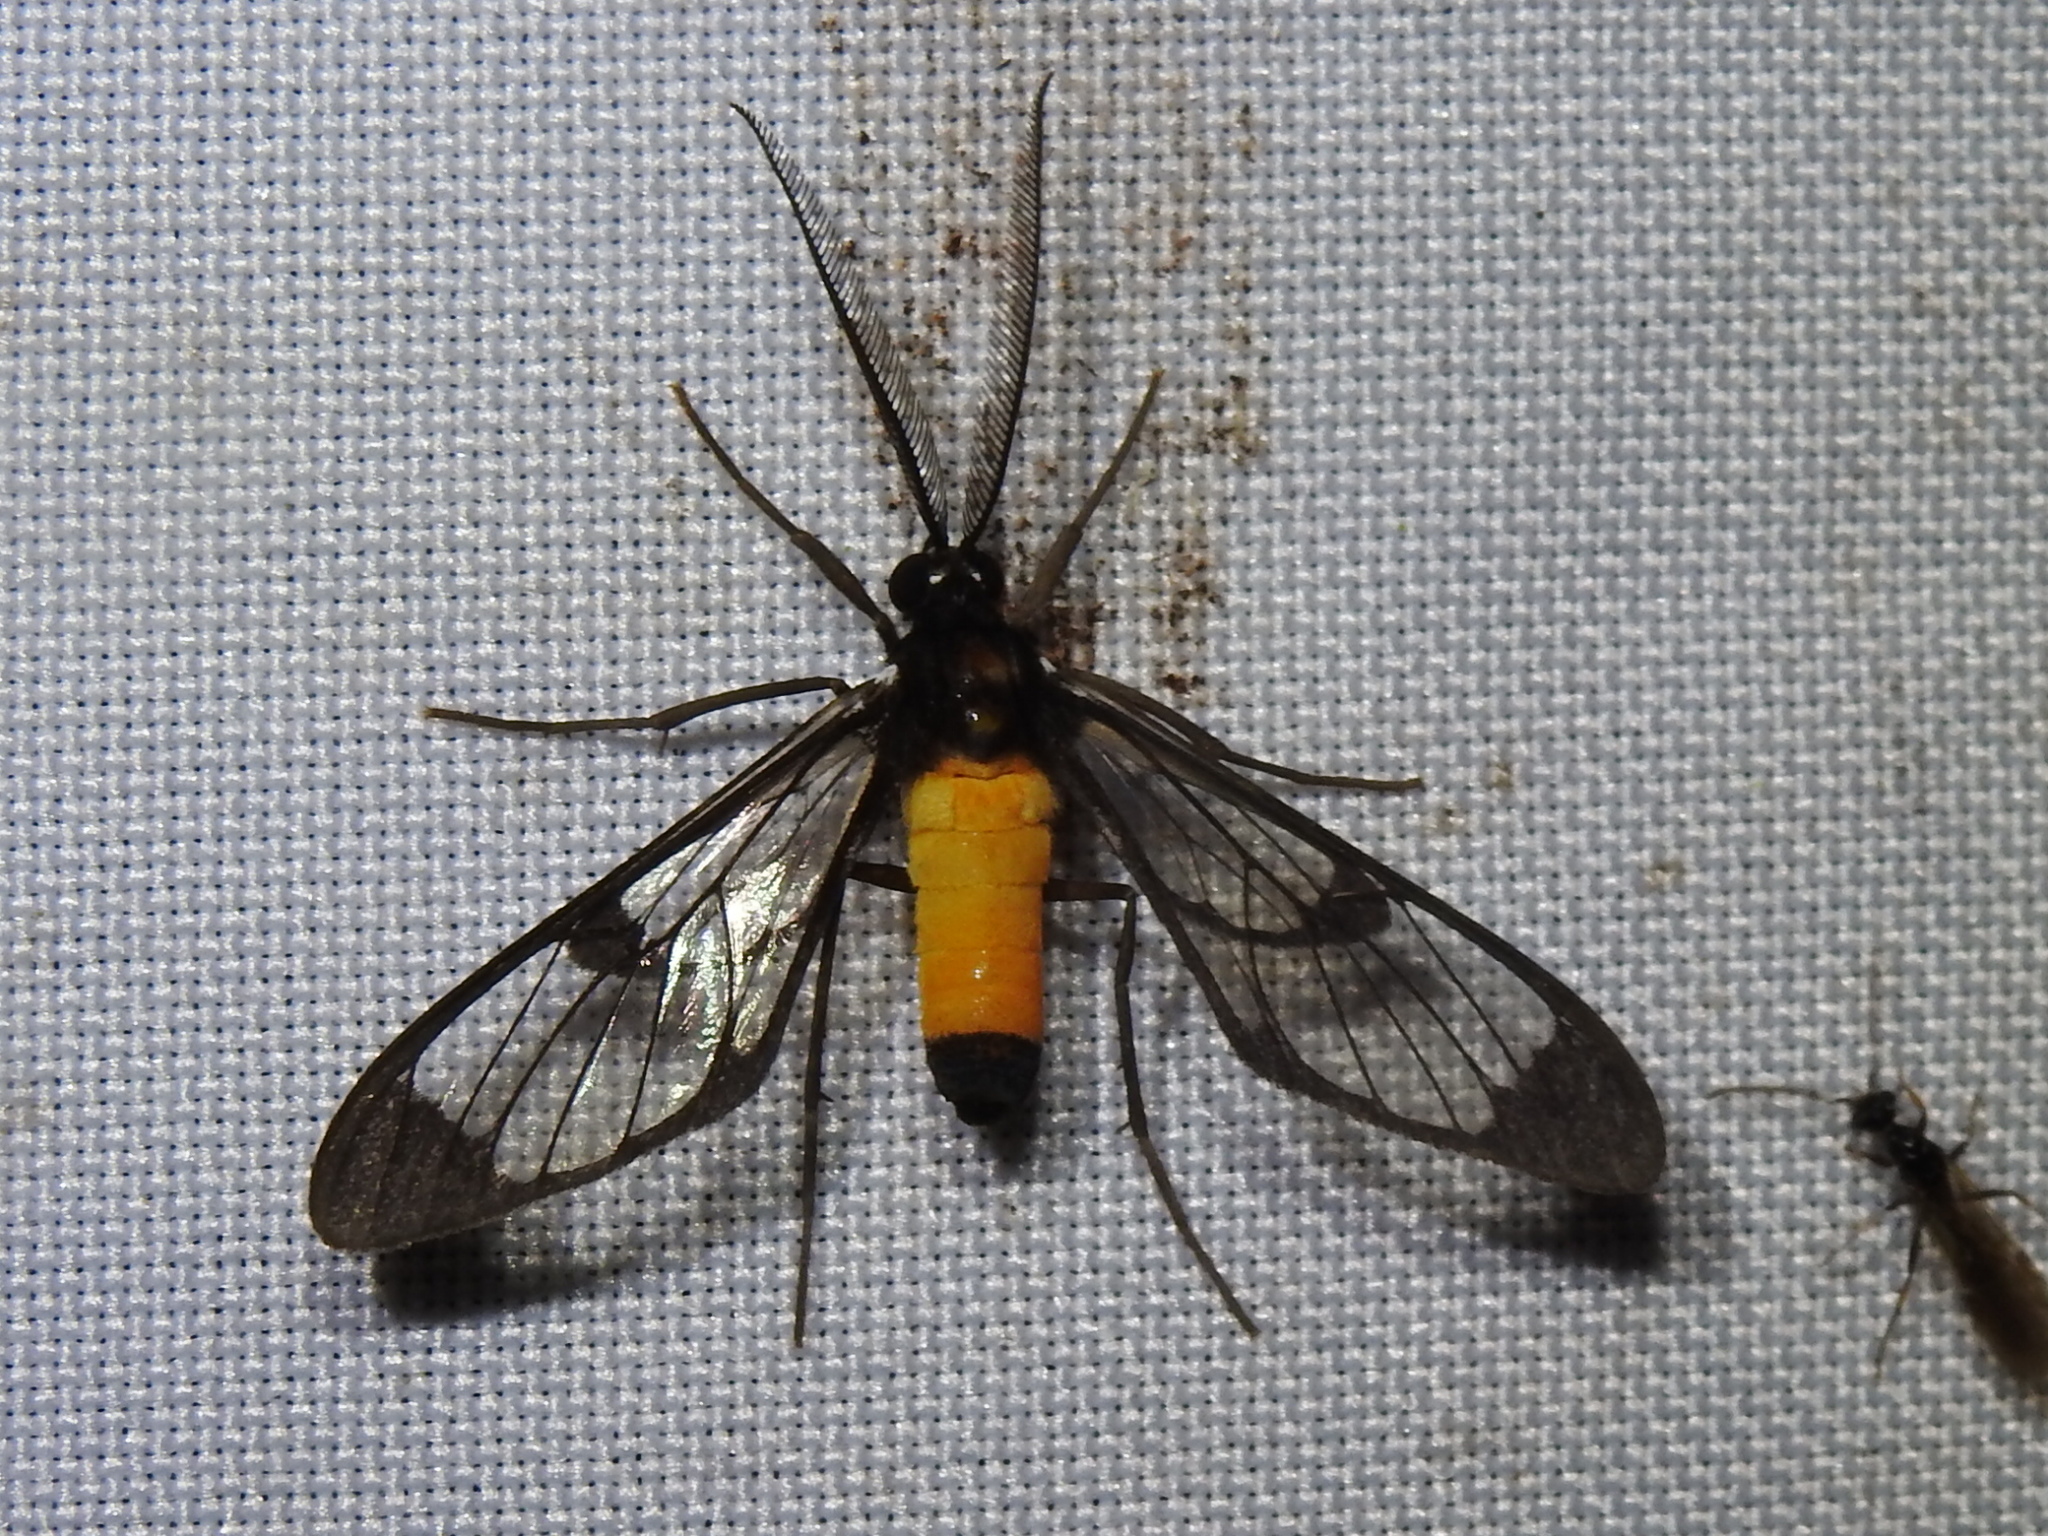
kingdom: Animalia
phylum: Arthropoda
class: Insecta
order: Lepidoptera
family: Erebidae
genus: Cosmosoma
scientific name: Cosmosoma galatea
